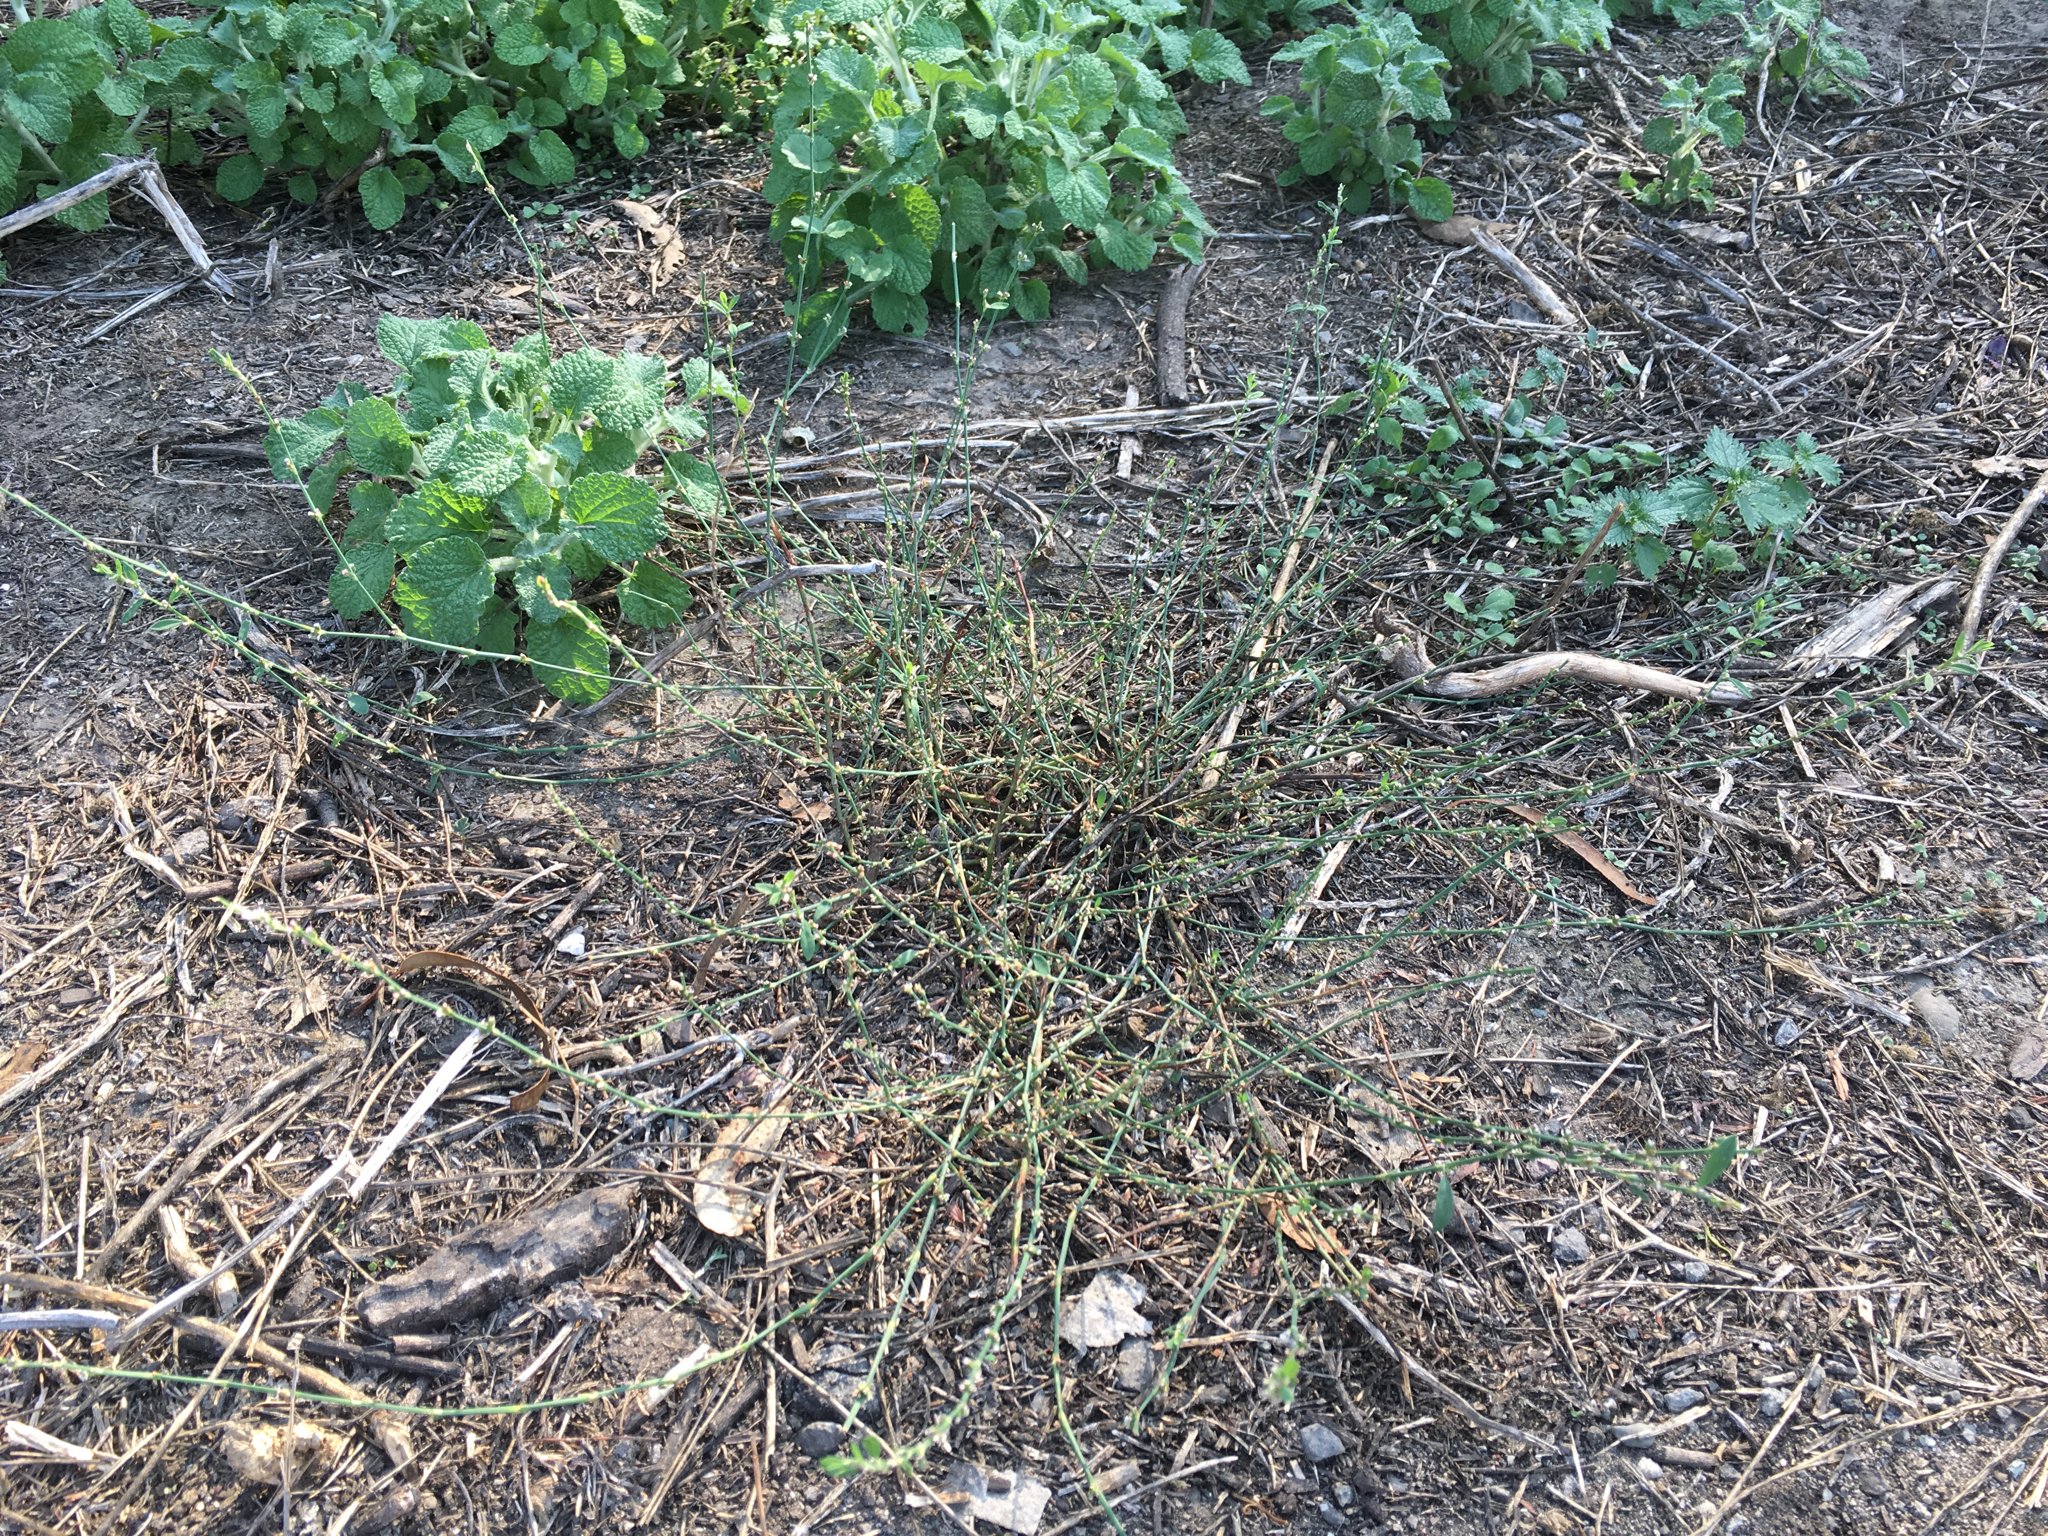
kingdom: Plantae
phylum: Tracheophyta
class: Magnoliopsida
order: Caryophyllales
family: Polygonaceae
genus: Polygonum
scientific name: Polygonum aviculare
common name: Prostrate knotweed
